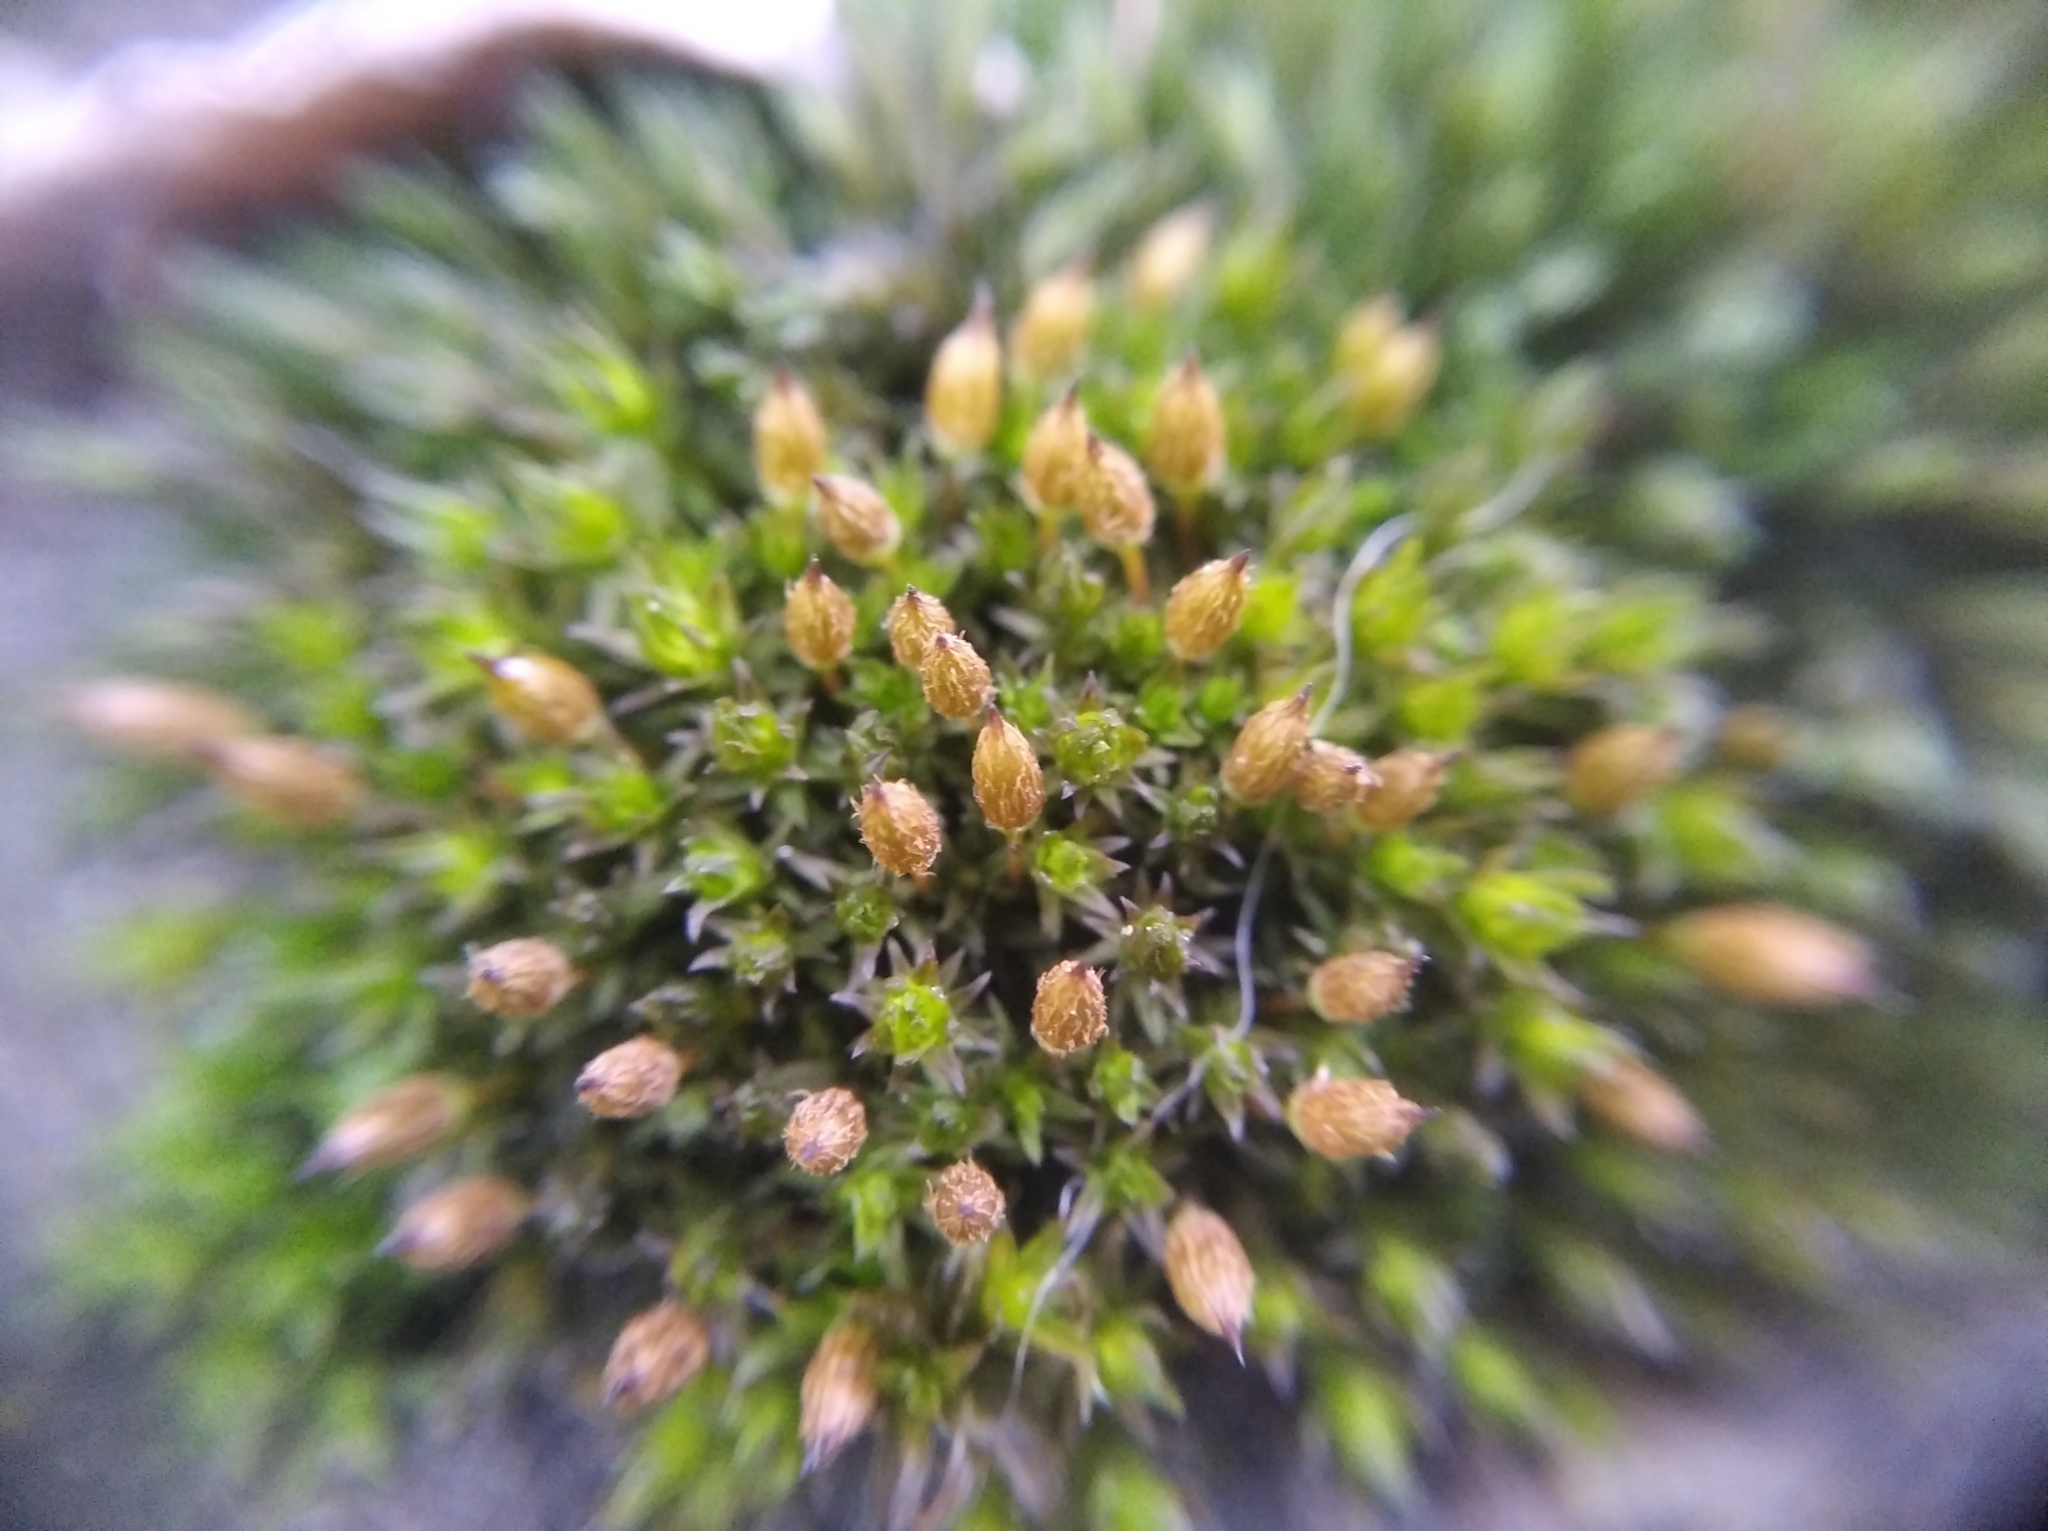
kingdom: Plantae
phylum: Bryophyta
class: Bryopsida
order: Orthotrichales
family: Orthotrichaceae
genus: Orthotrichum
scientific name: Orthotrichum anomalum
